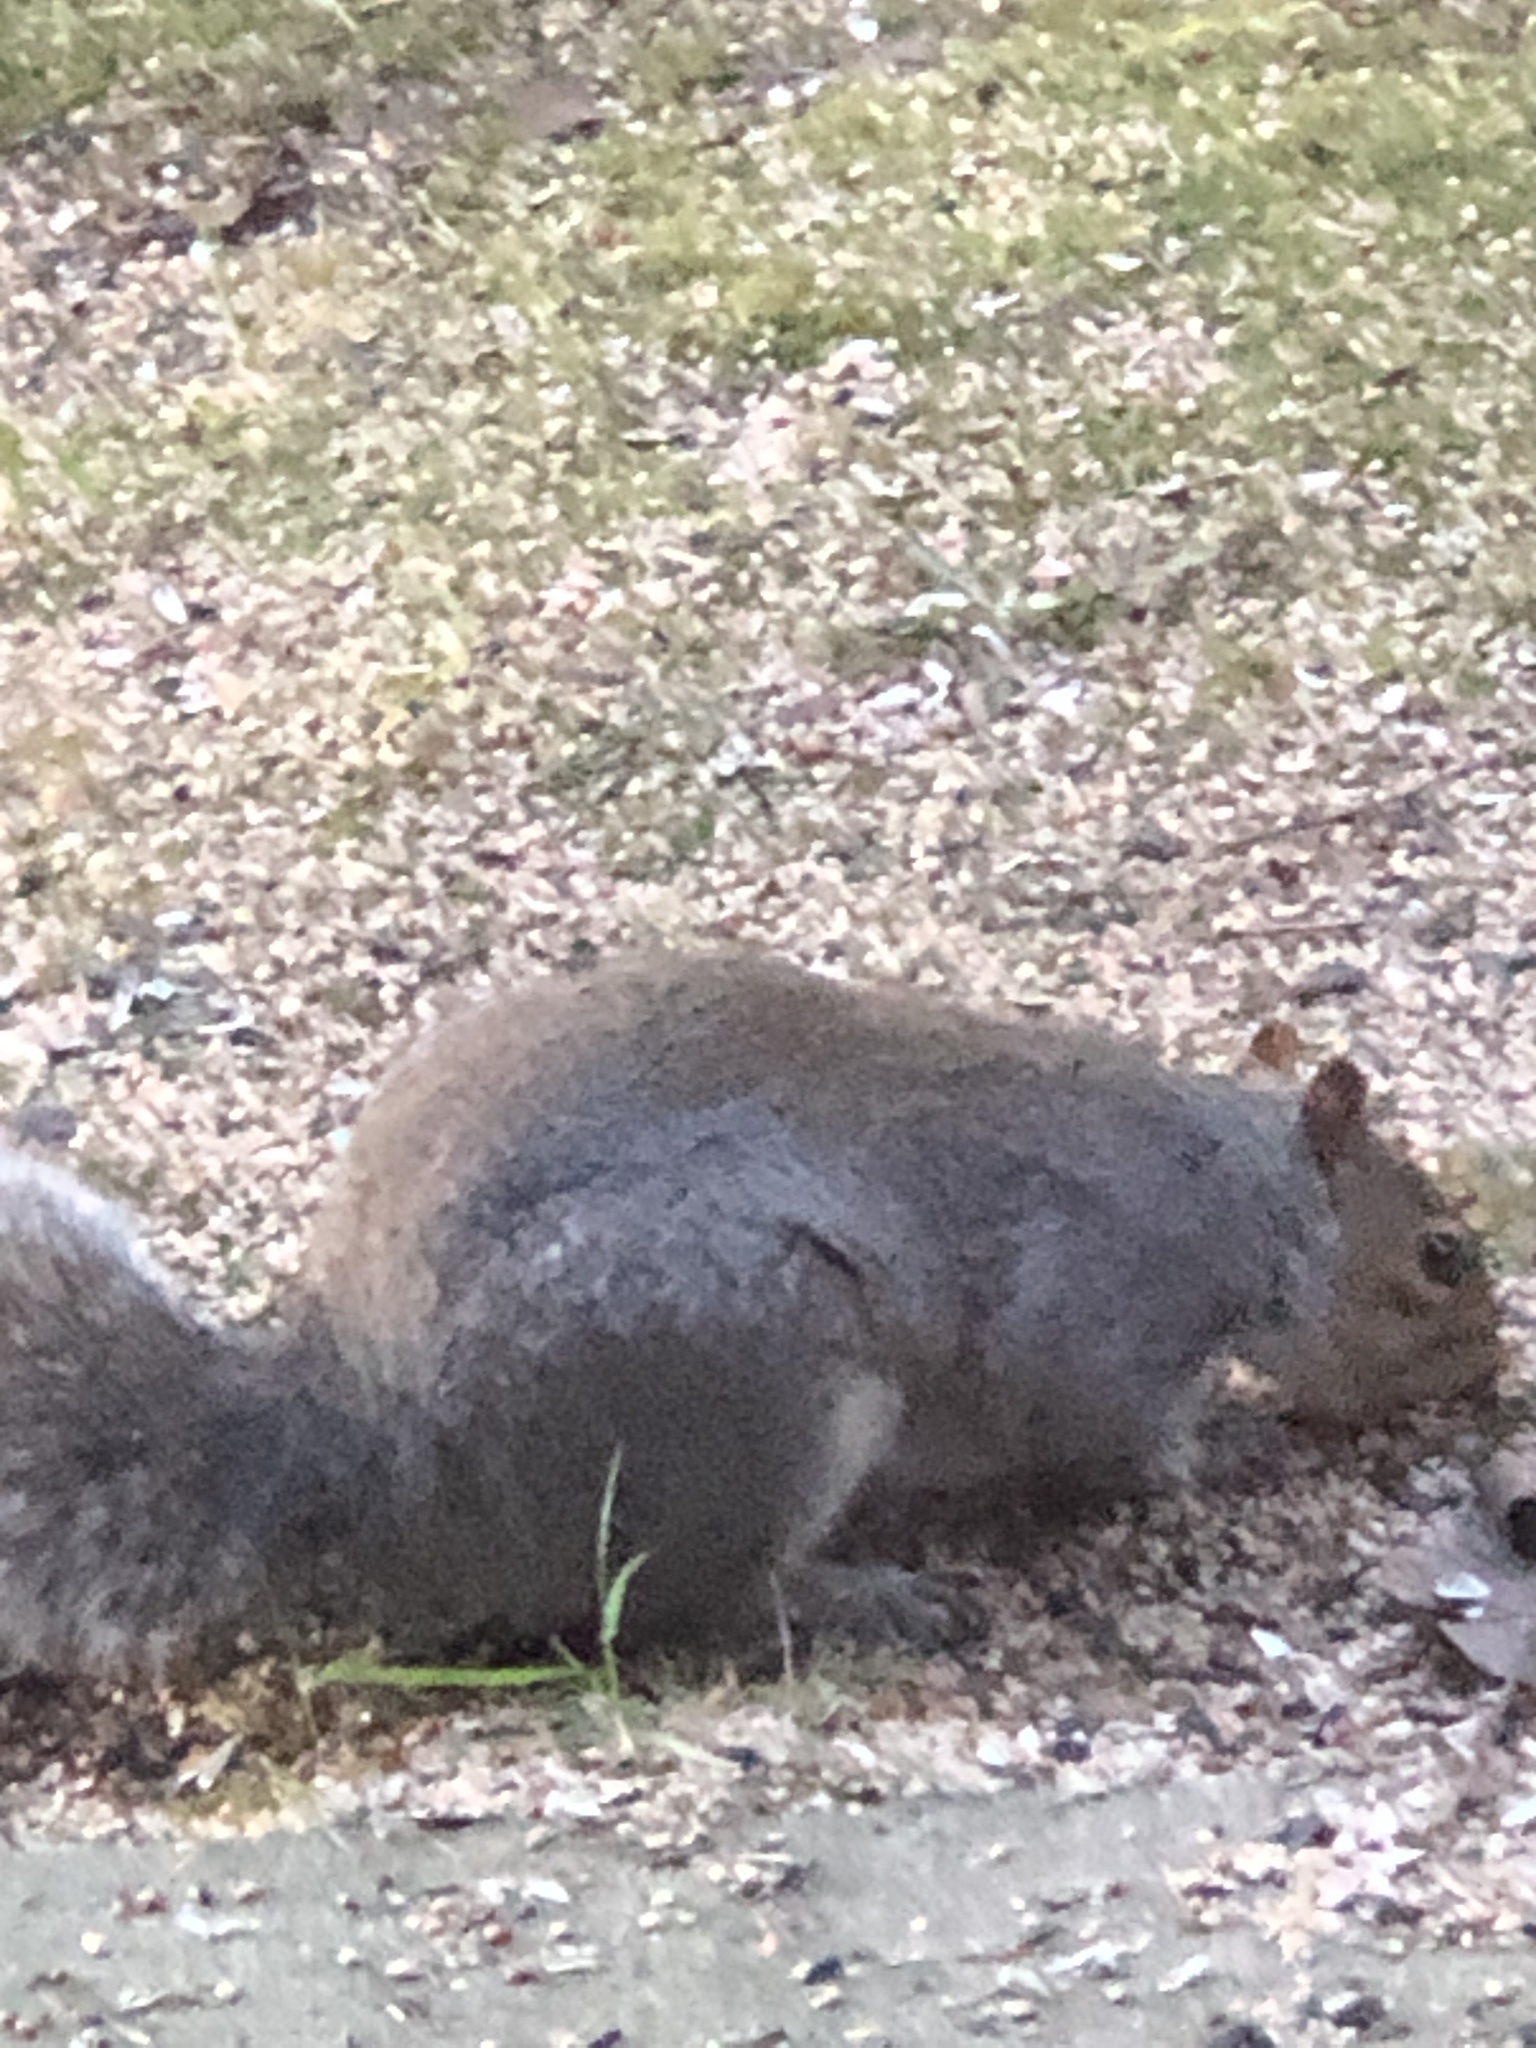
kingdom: Animalia
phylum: Chordata
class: Mammalia
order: Rodentia
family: Sciuridae
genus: Sciurus
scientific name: Sciurus carolinensis
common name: Eastern gray squirrel
